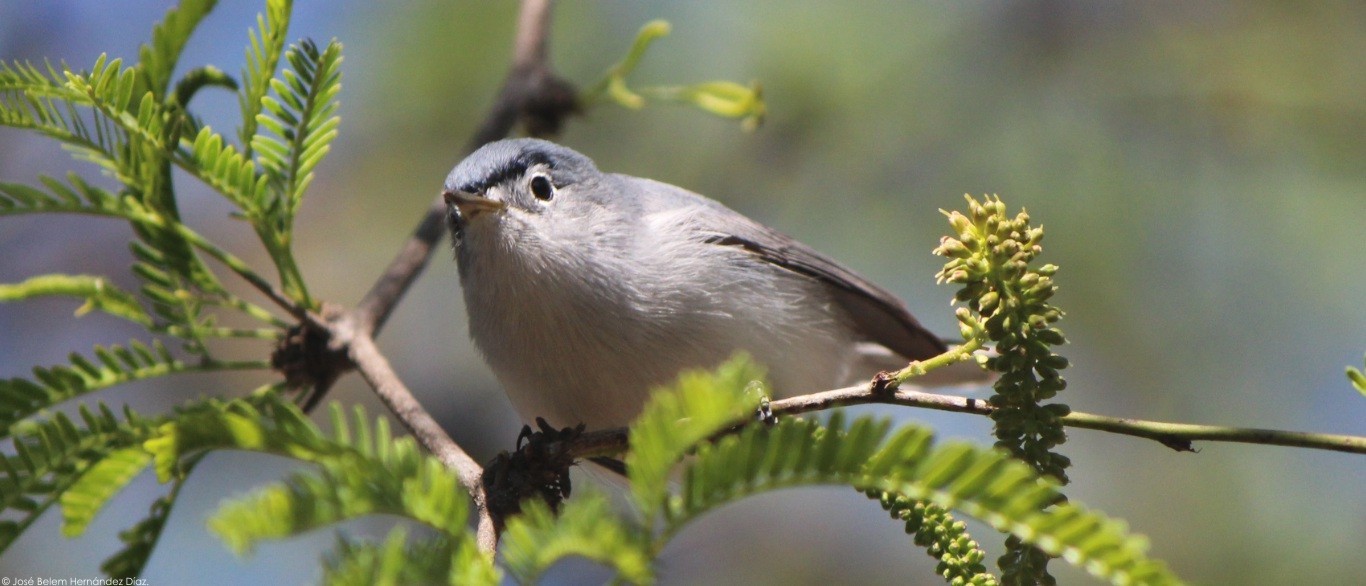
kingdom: Animalia
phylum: Chordata
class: Aves
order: Passeriformes
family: Polioptilidae
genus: Polioptila
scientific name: Polioptila caerulea
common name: Blue-gray gnatcatcher
